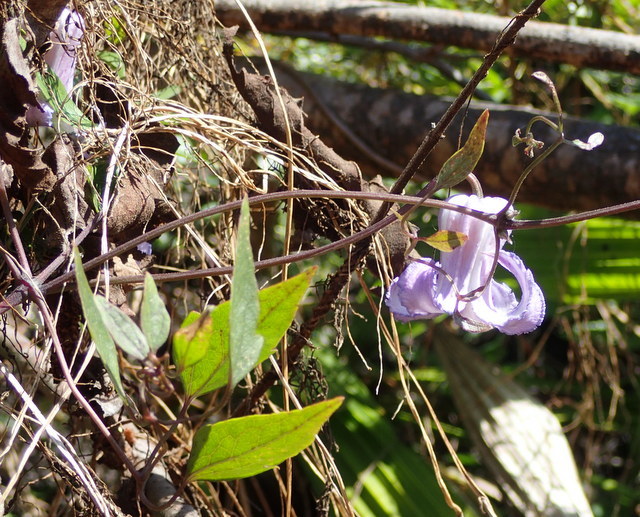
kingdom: Plantae
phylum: Tracheophyta
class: Magnoliopsida
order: Ranunculales
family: Ranunculaceae
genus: Clematis
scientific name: Clematis crispa
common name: Curly clematis
